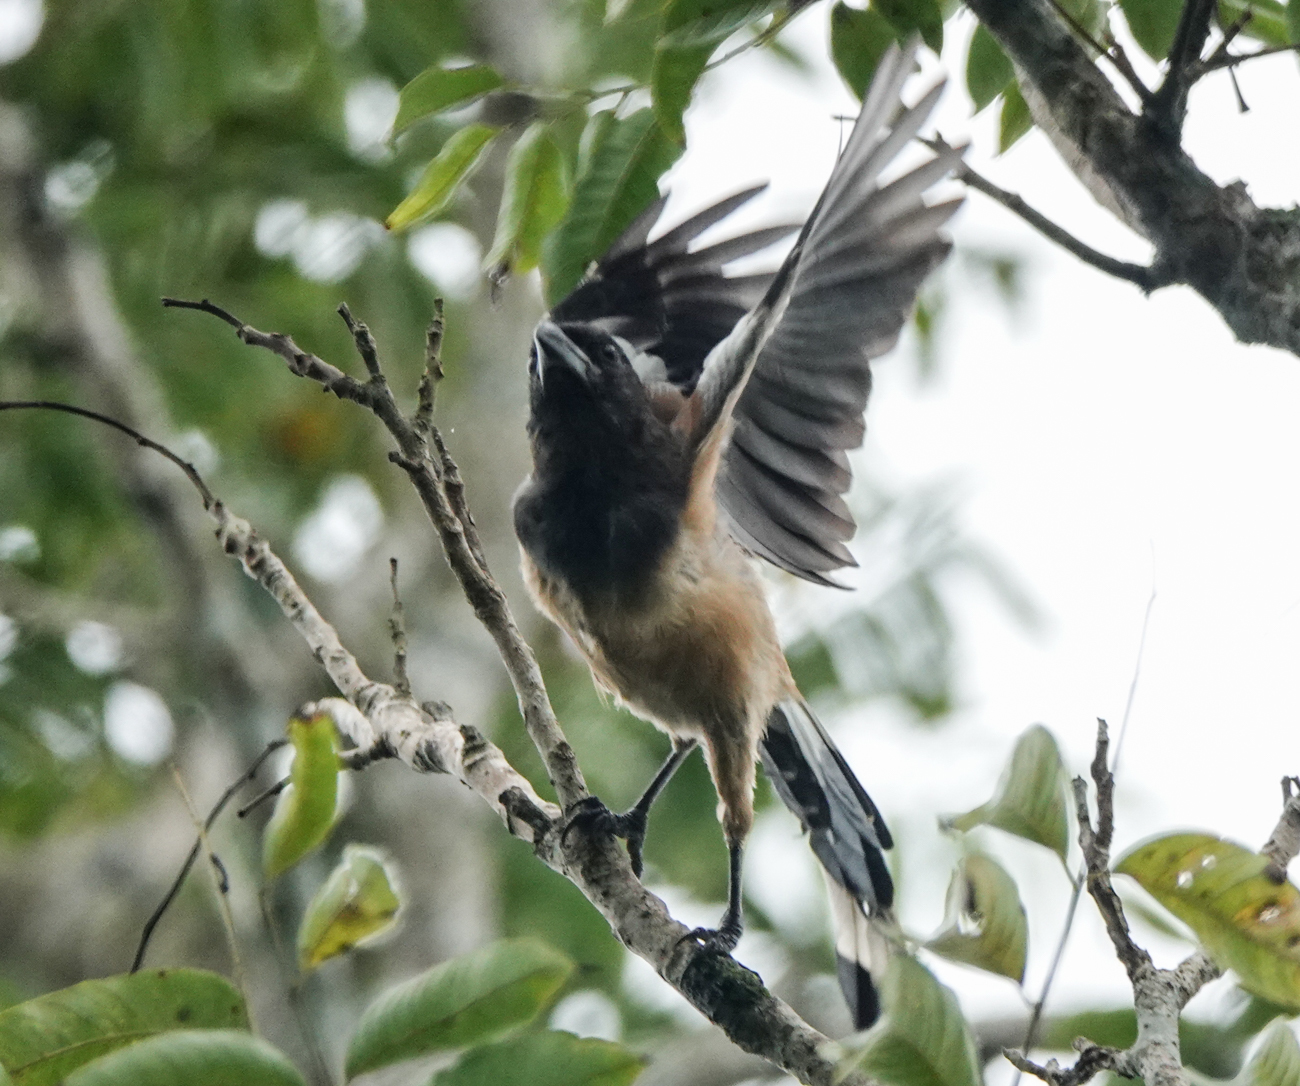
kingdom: Animalia
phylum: Chordata
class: Aves
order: Passeriformes
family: Corvidae
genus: Dendrocitta
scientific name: Dendrocitta vagabunda
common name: Rufous treepie
